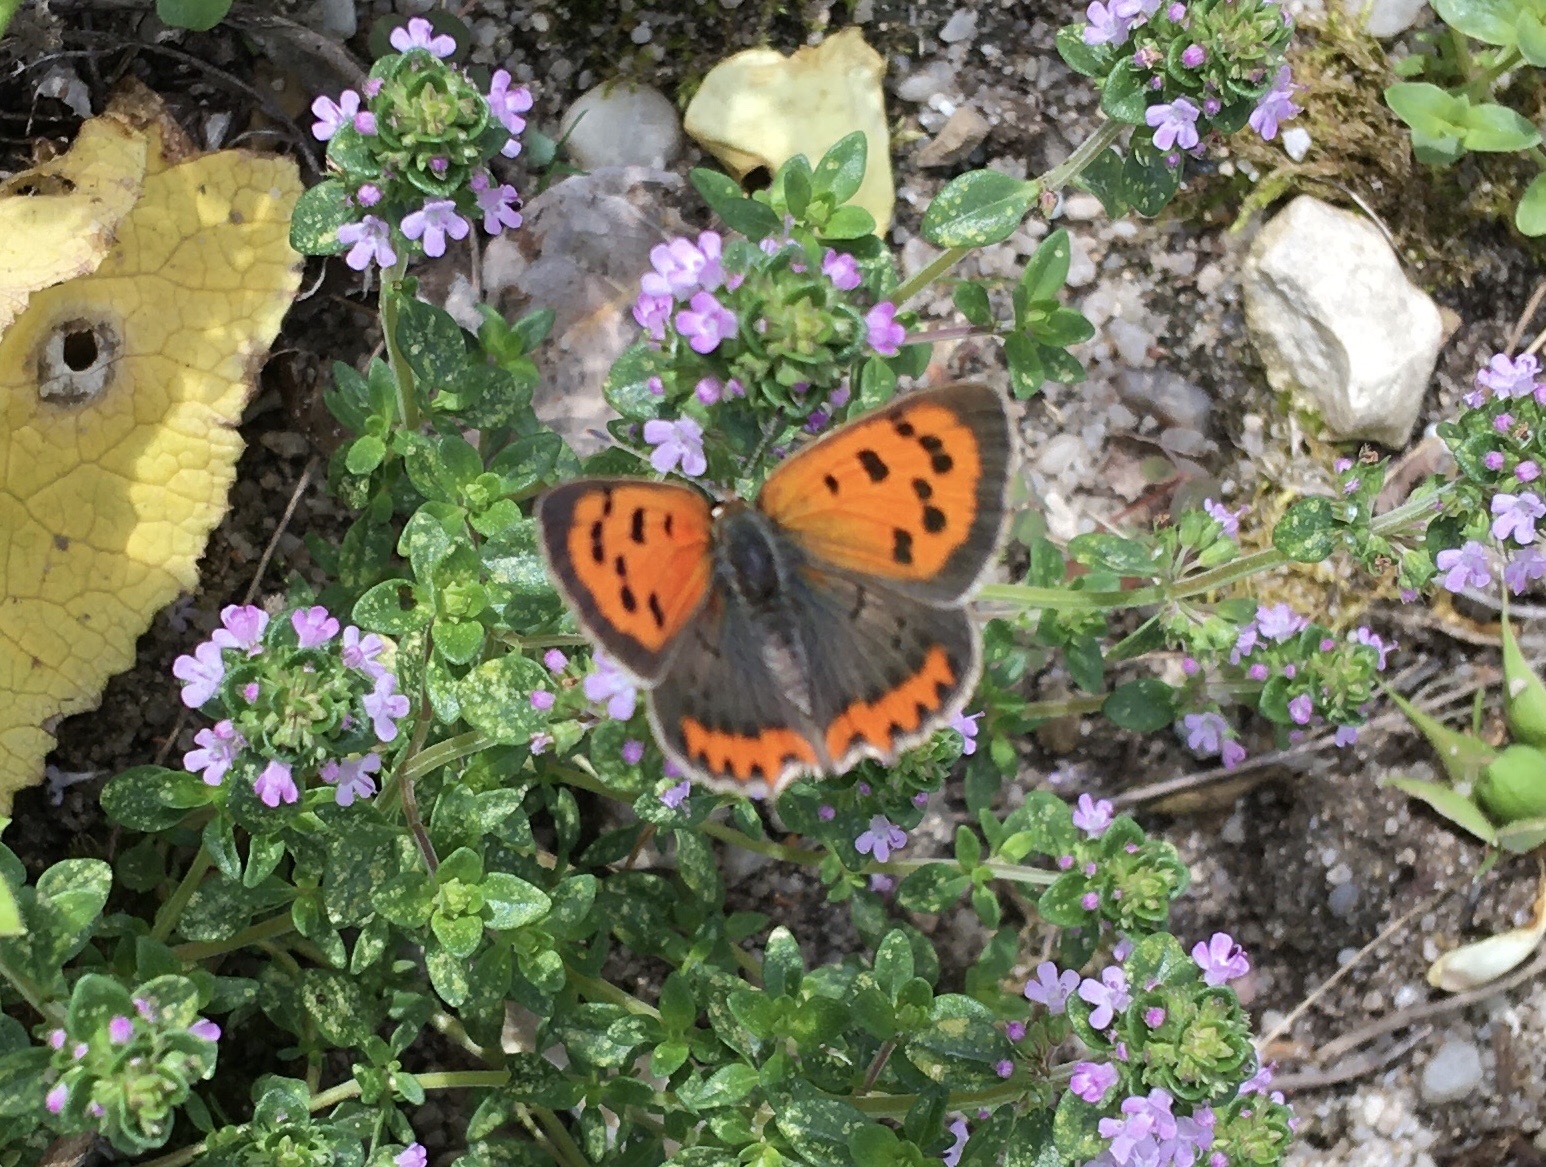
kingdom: Animalia
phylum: Arthropoda
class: Insecta
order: Lepidoptera
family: Lycaenidae
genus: Lycaena
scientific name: Lycaena phlaeas
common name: Small copper
